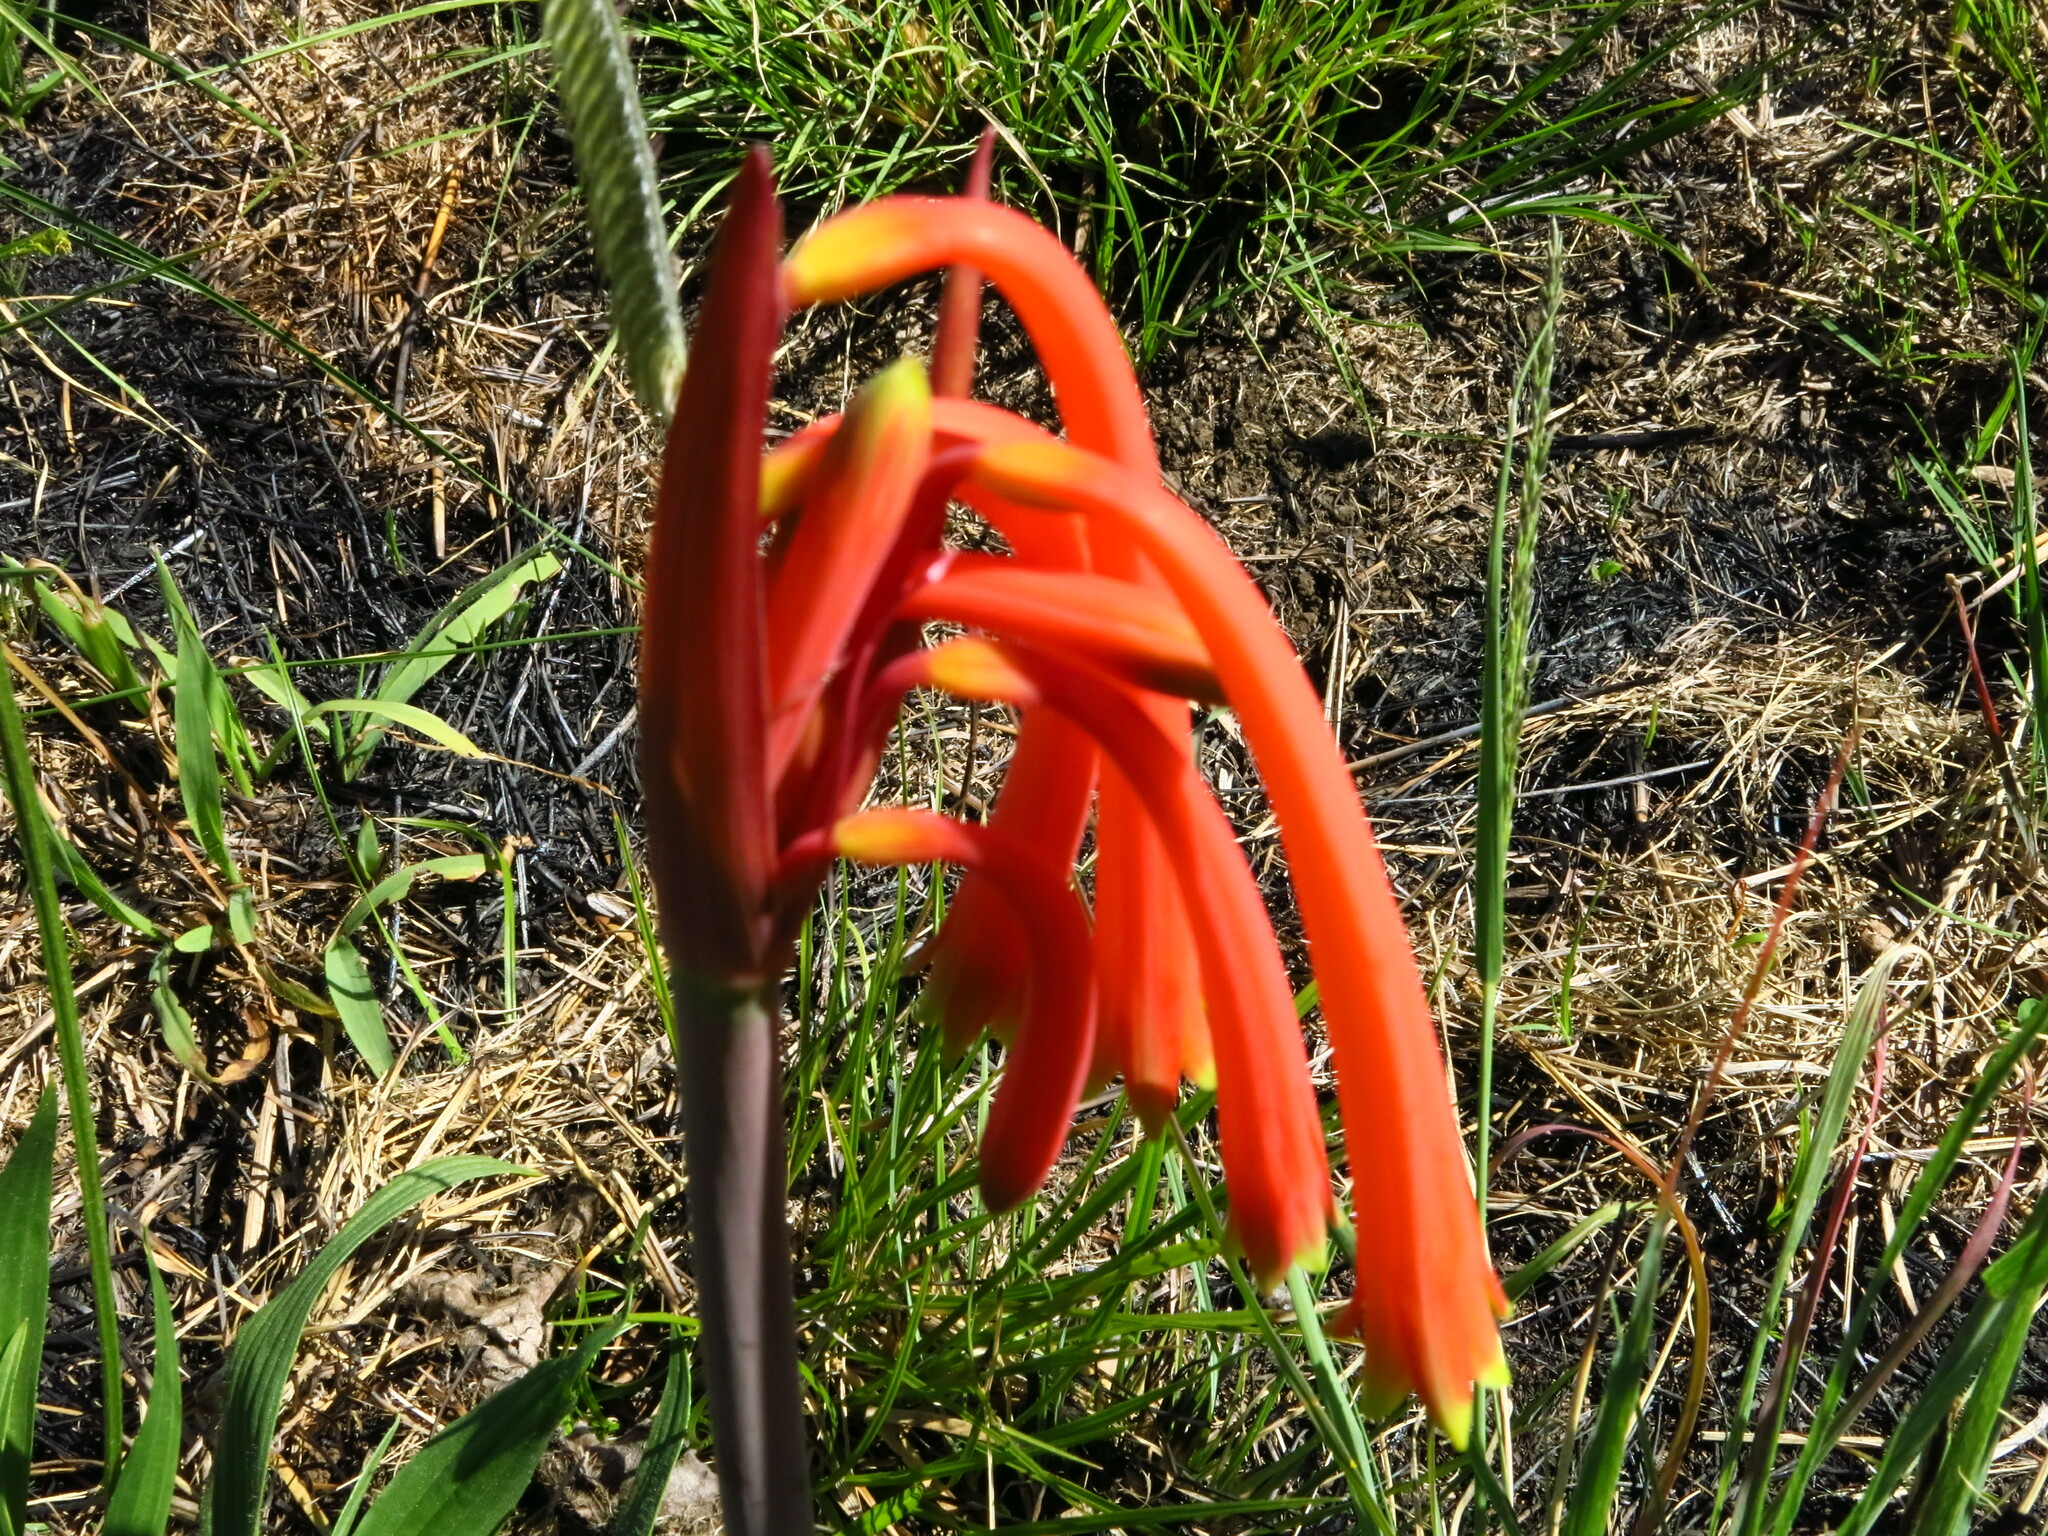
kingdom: Plantae
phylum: Tracheophyta
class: Liliopsida
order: Asparagales
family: Amaryllidaceae
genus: Cyrtanthus
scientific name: Cyrtanthus tuckii
